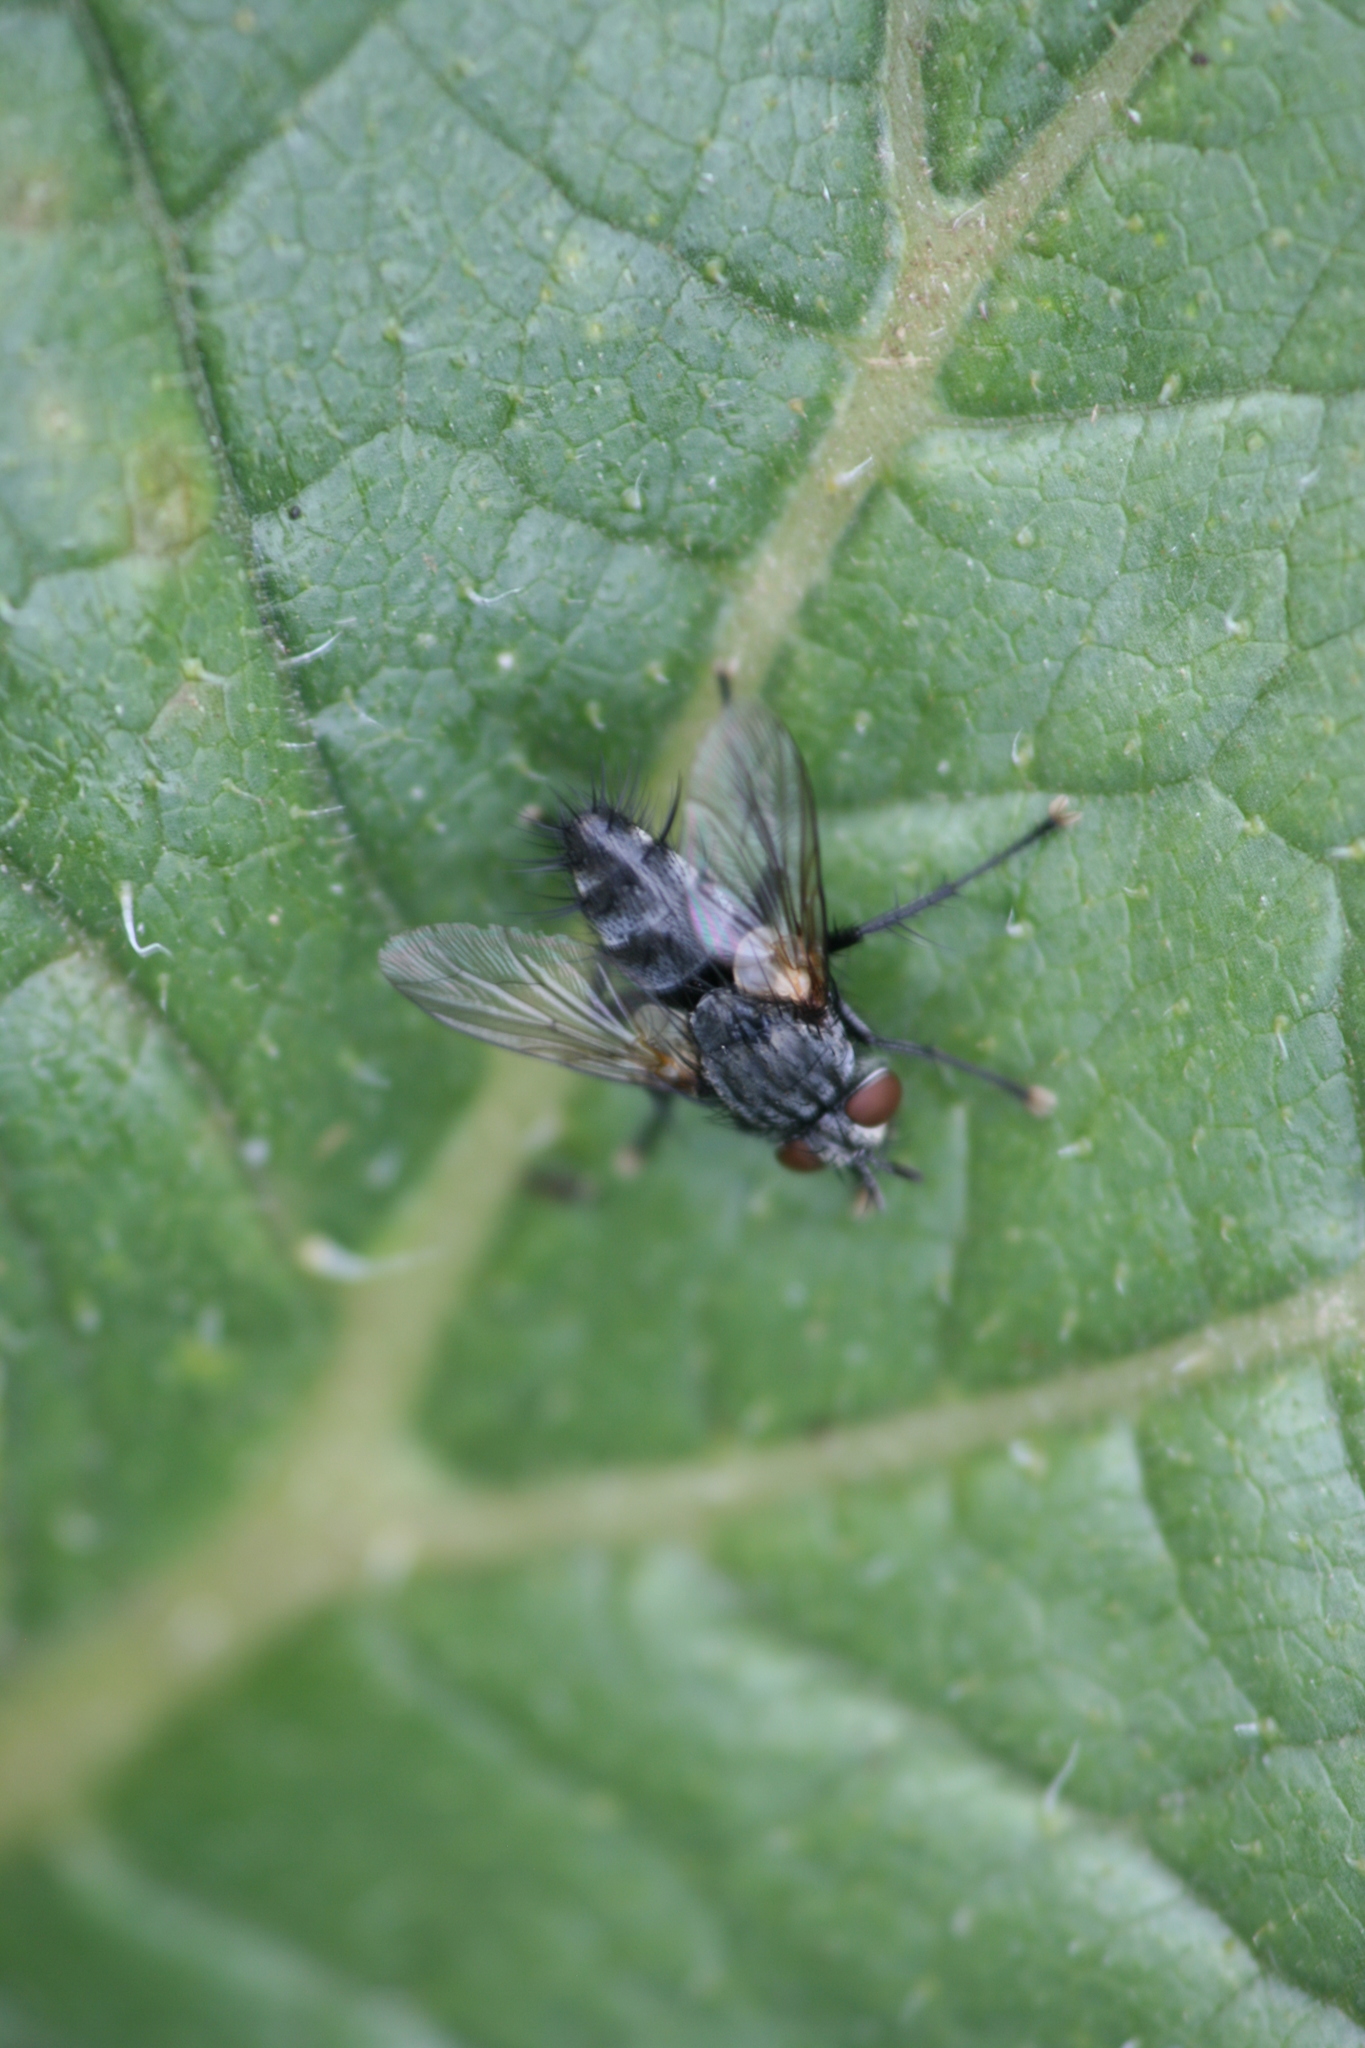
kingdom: Animalia
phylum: Arthropoda
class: Insecta
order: Diptera
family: Tachinidae
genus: Voria
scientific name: Voria ruralis
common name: Parasitic fly
